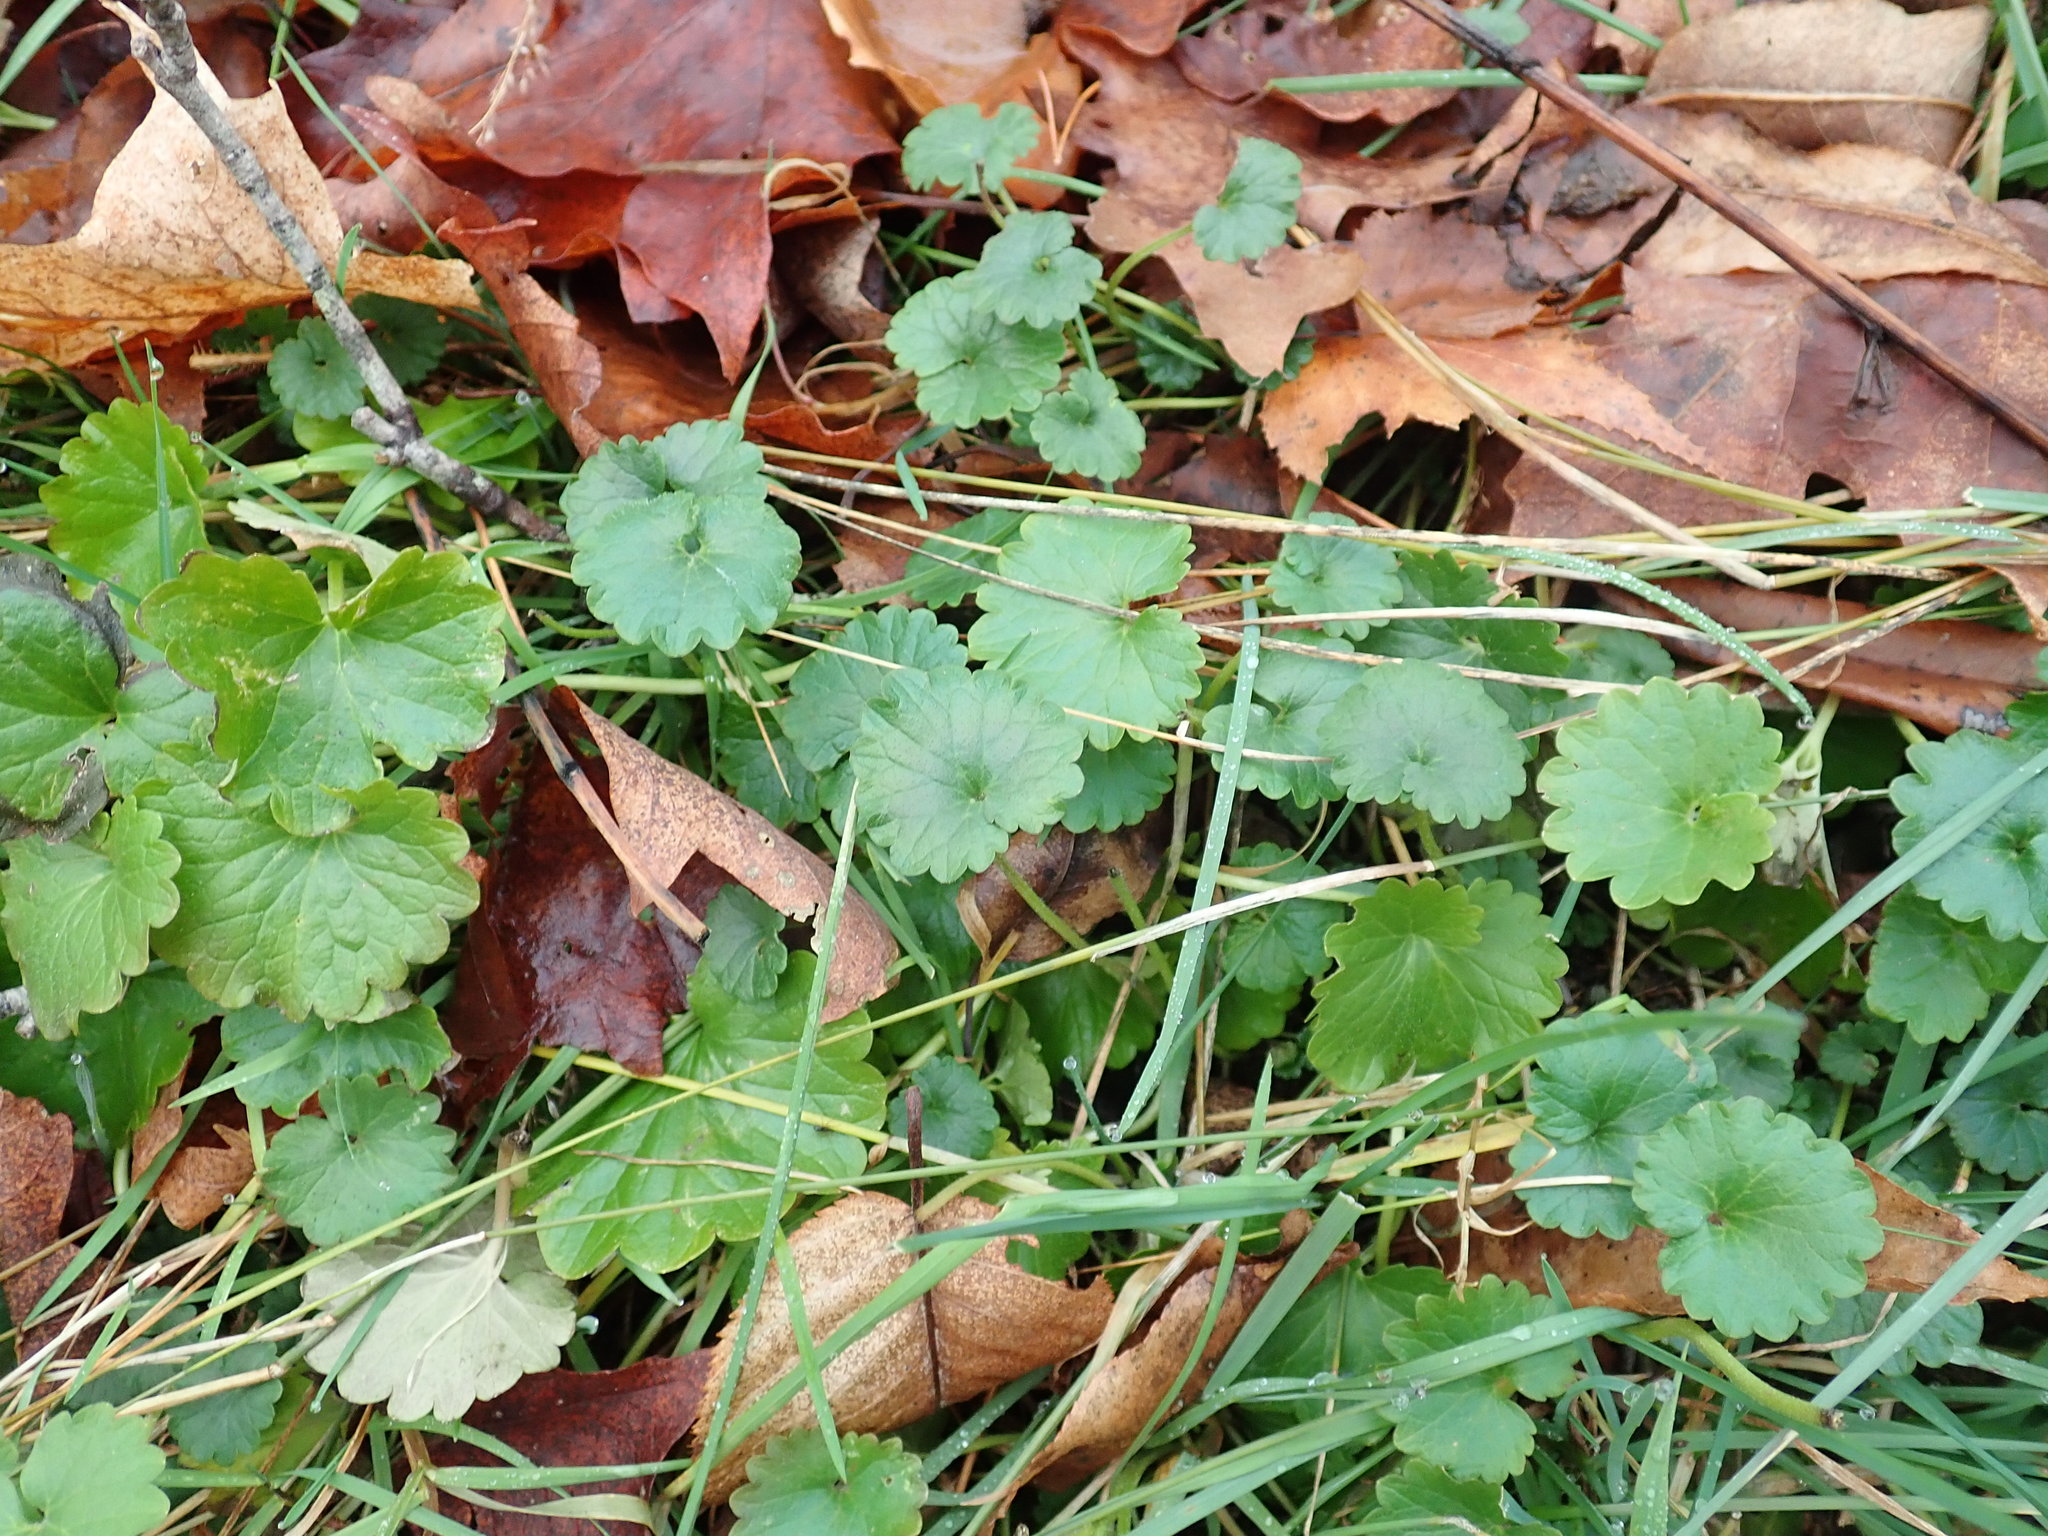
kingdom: Plantae
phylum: Tracheophyta
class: Magnoliopsida
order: Lamiales
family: Lamiaceae
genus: Glechoma
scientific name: Glechoma hederacea
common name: Ground ivy
